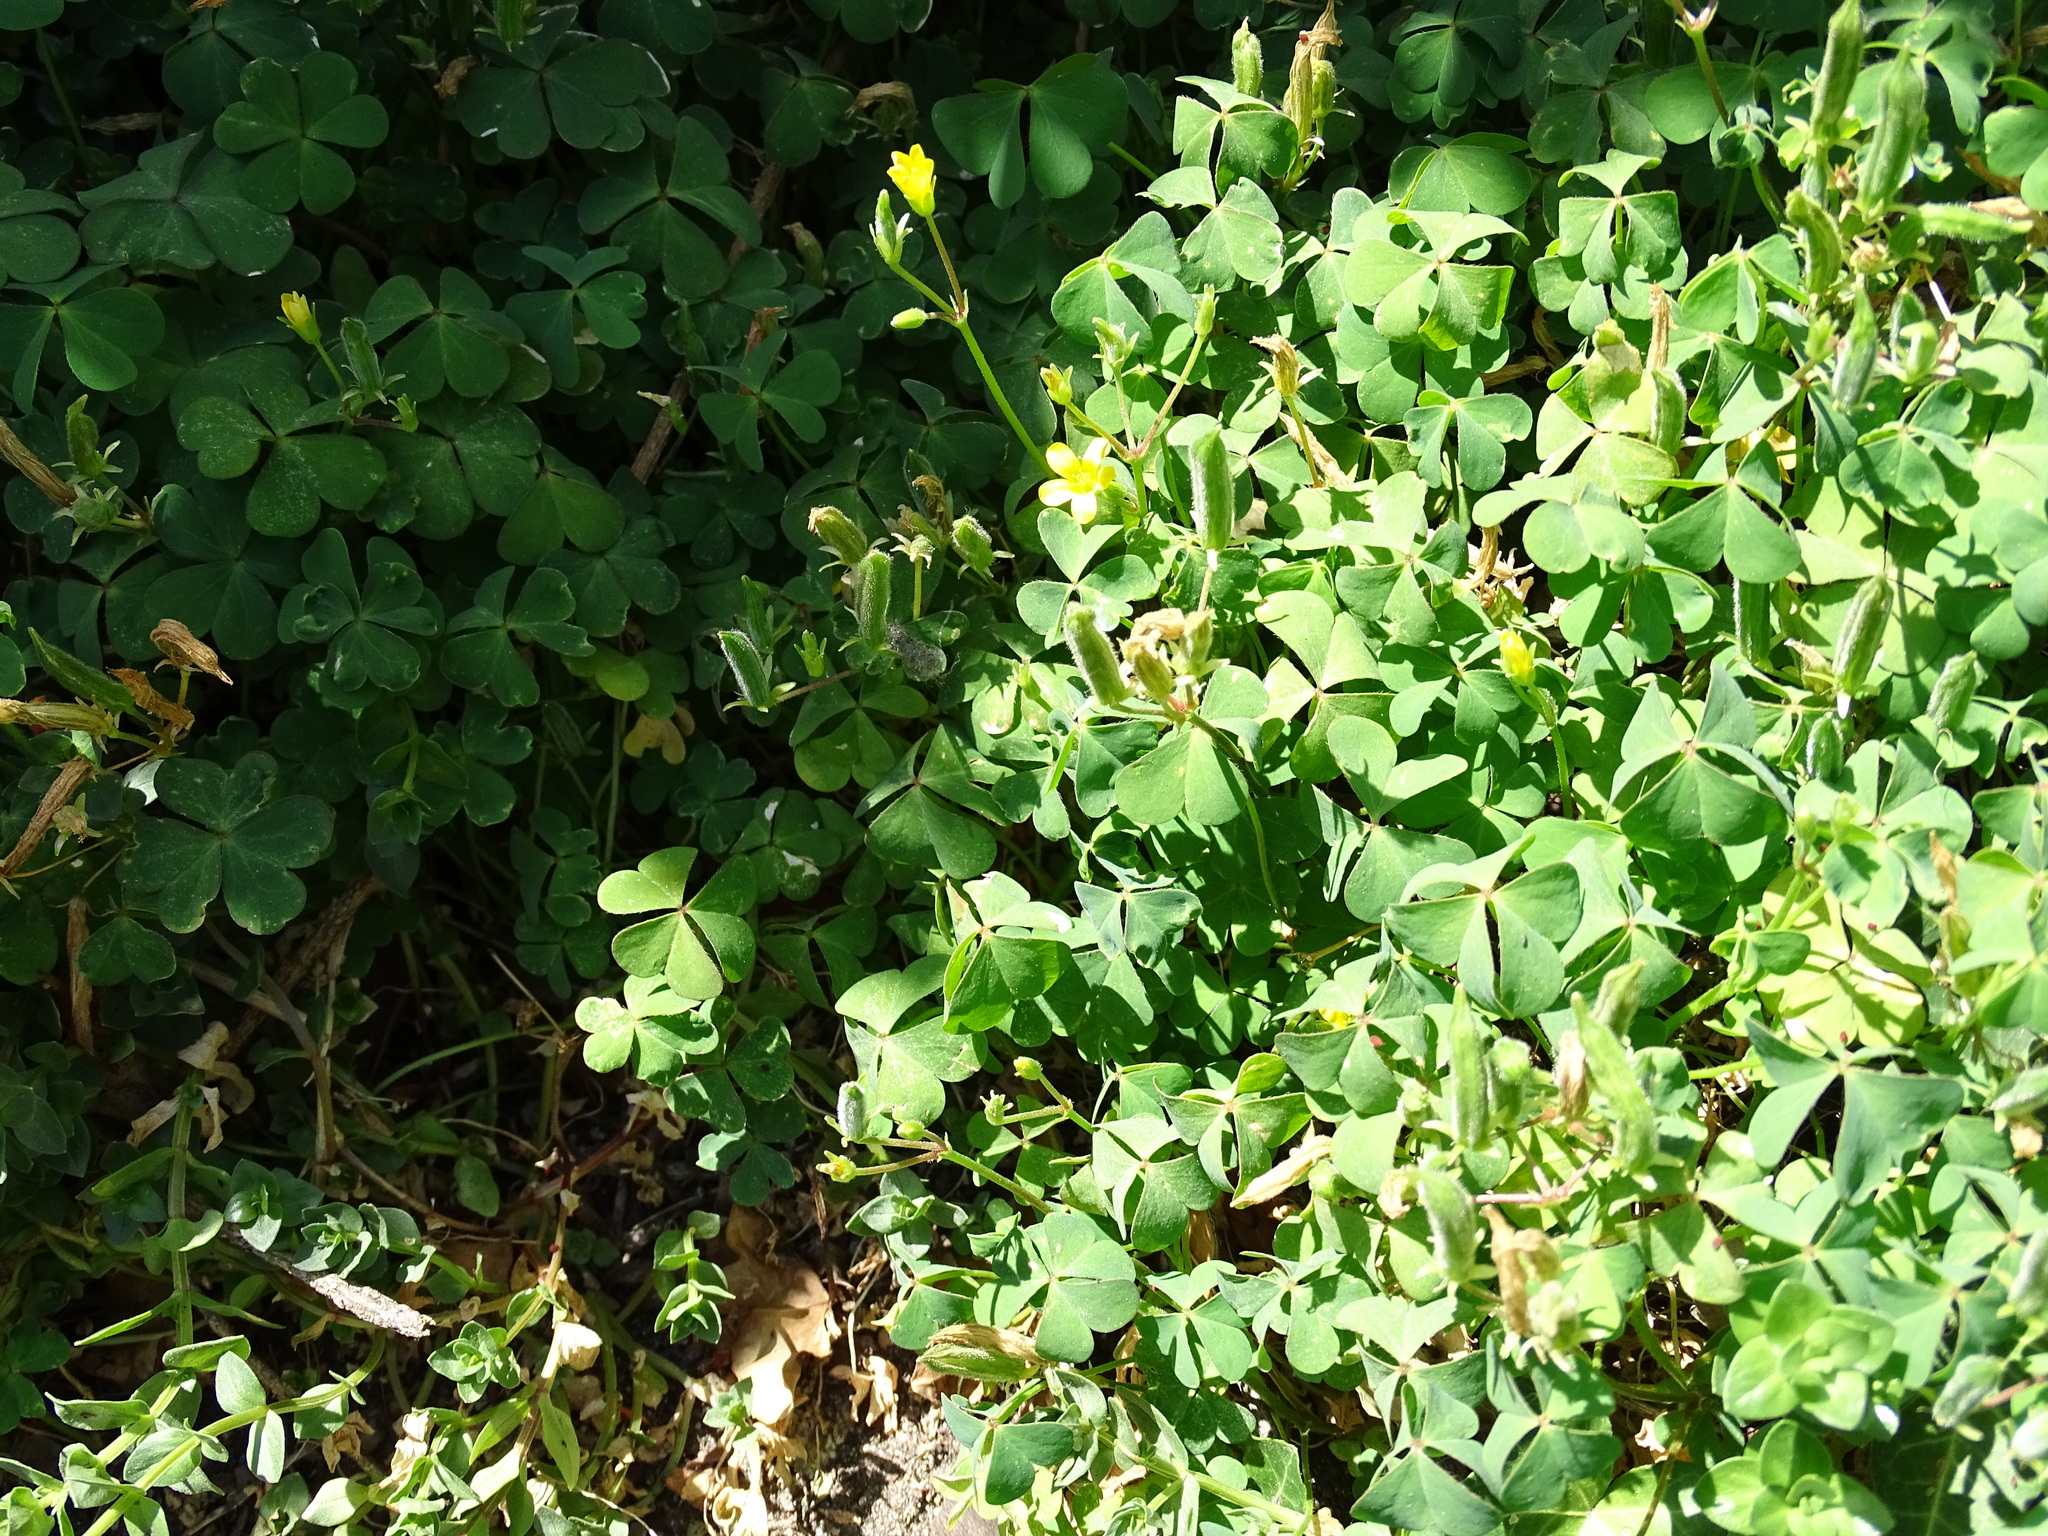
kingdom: Plantae
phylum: Tracheophyta
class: Magnoliopsida
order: Oxalidales
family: Oxalidaceae
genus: Oxalis
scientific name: Oxalis corniculata
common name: Procumbent yellow-sorrel
